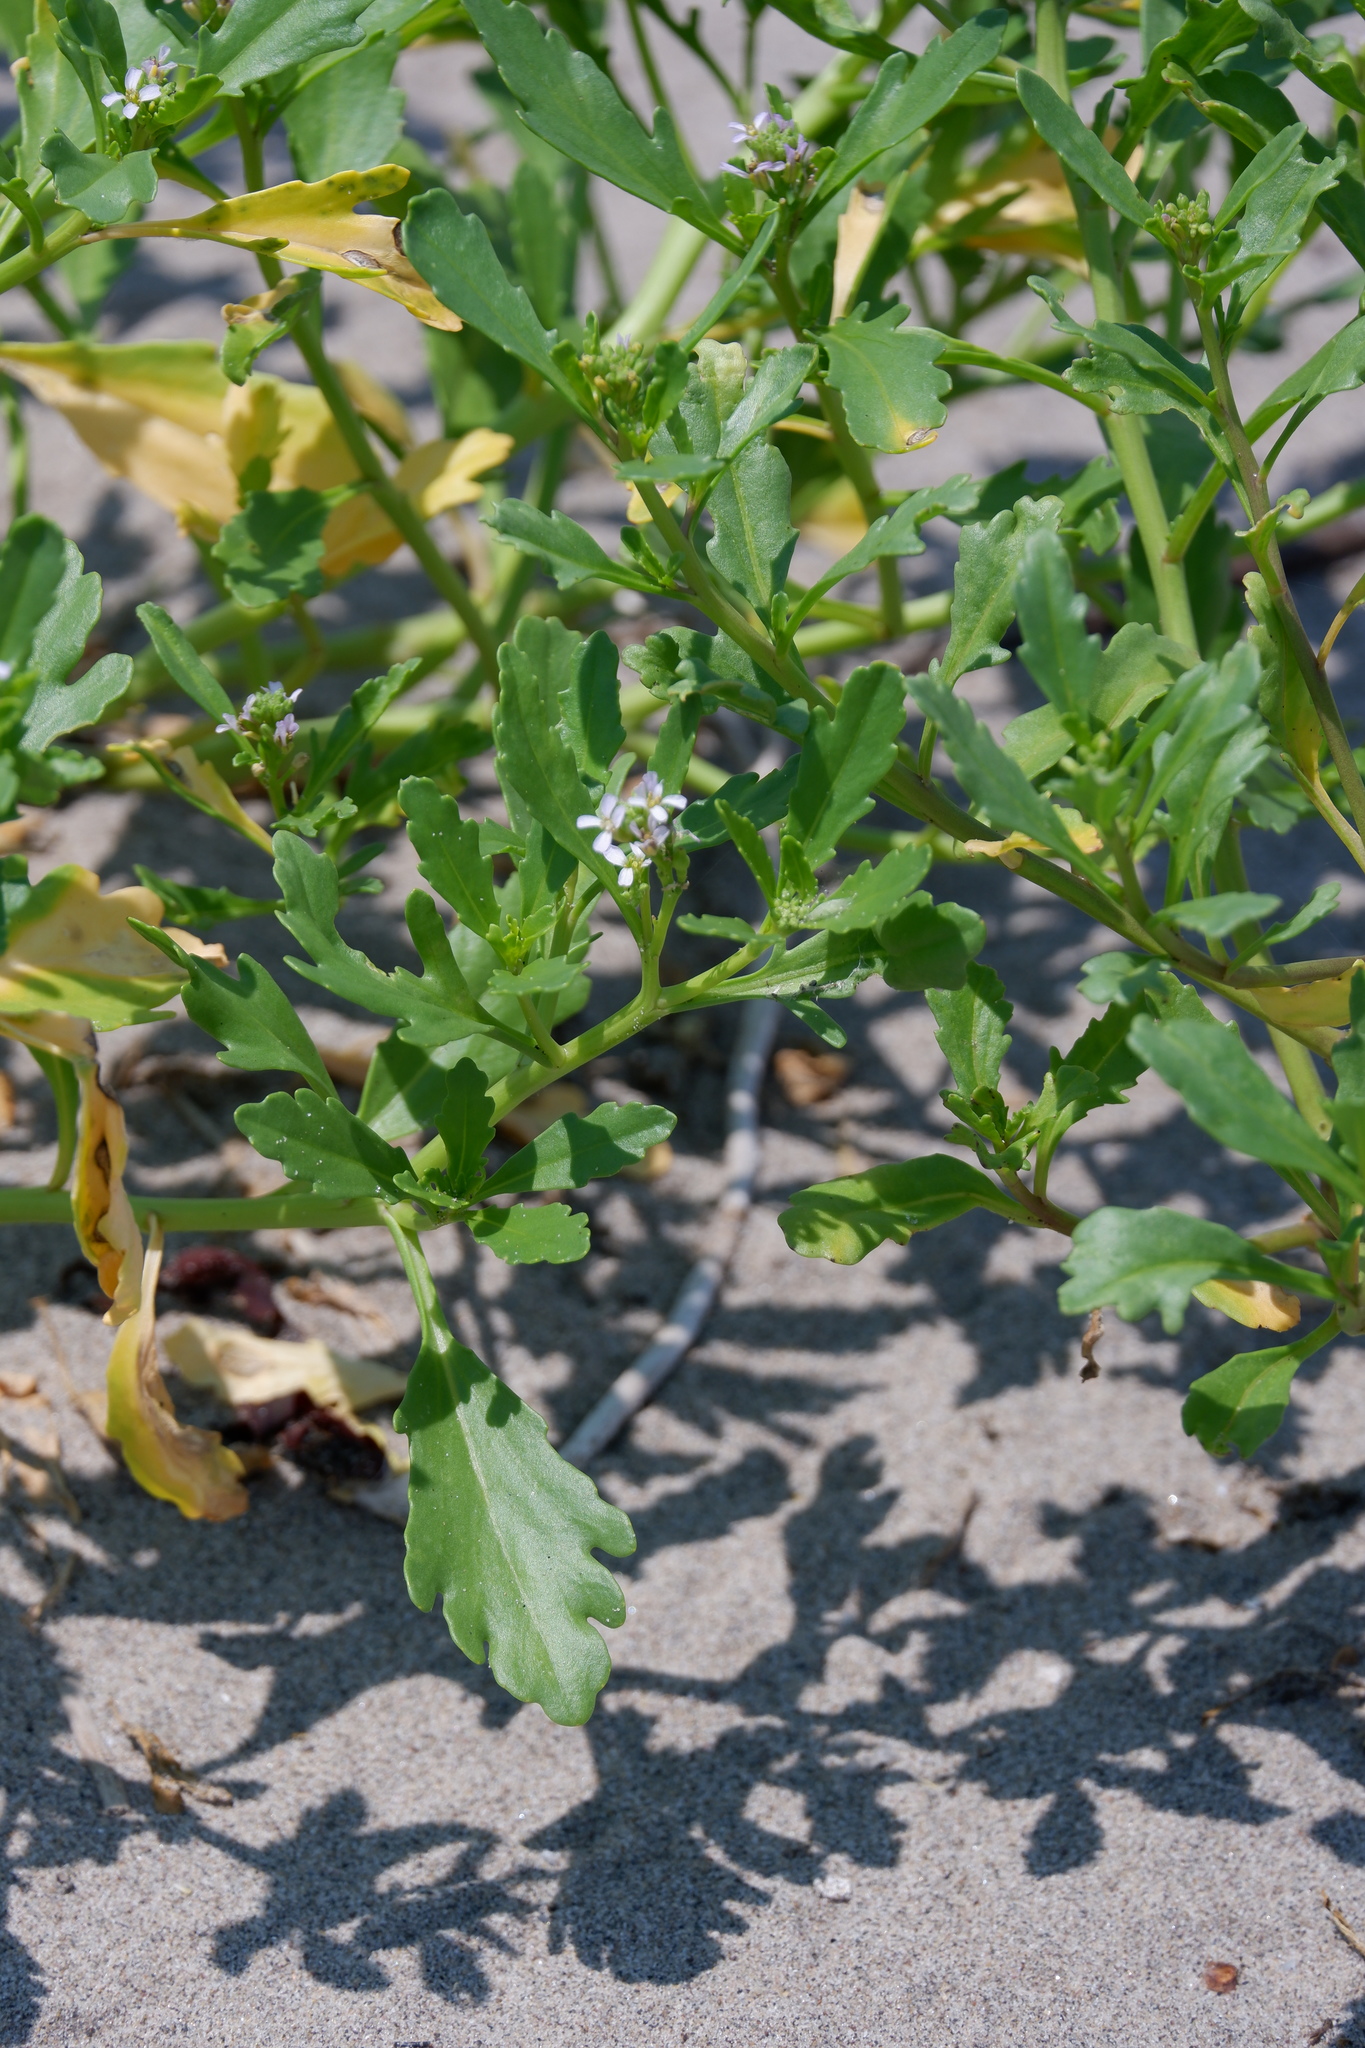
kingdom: Plantae
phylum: Tracheophyta
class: Magnoliopsida
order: Brassicales
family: Brassicaceae
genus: Cakile
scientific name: Cakile edentula
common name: American sea rocket
